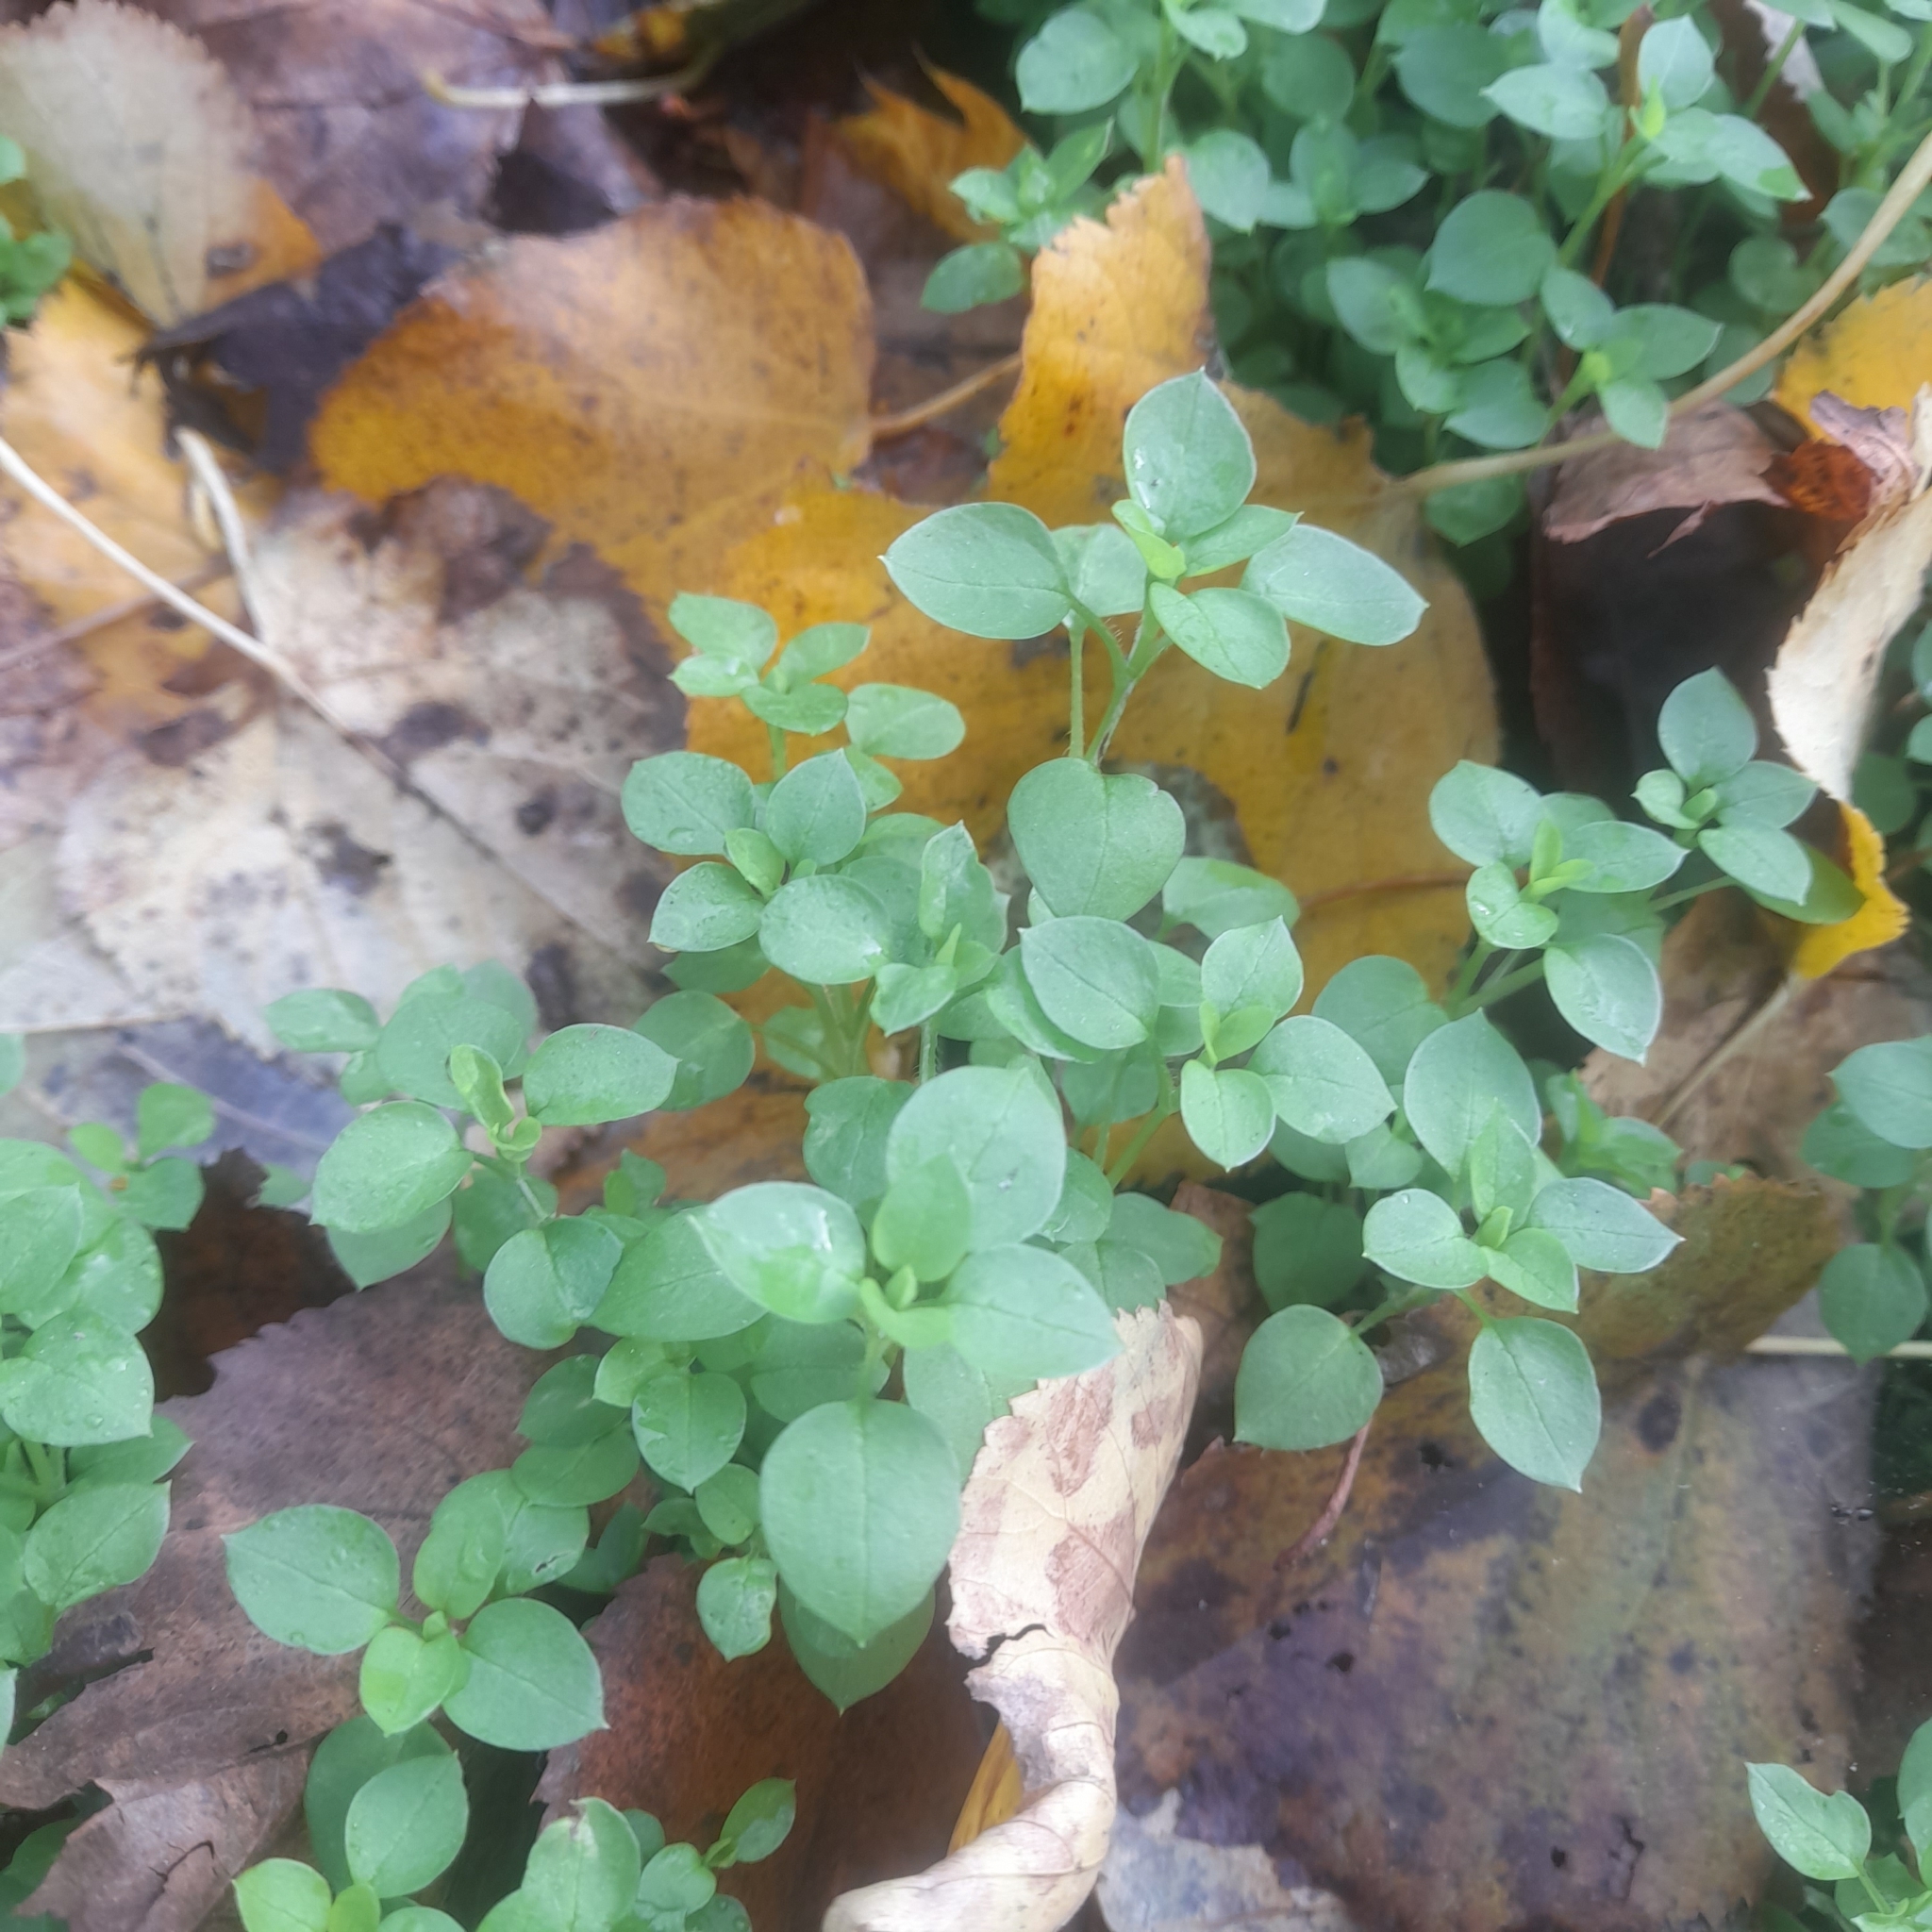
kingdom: Plantae
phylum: Tracheophyta
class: Magnoliopsida
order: Caryophyllales
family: Caryophyllaceae
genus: Stellaria
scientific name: Stellaria media
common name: Common chickweed
